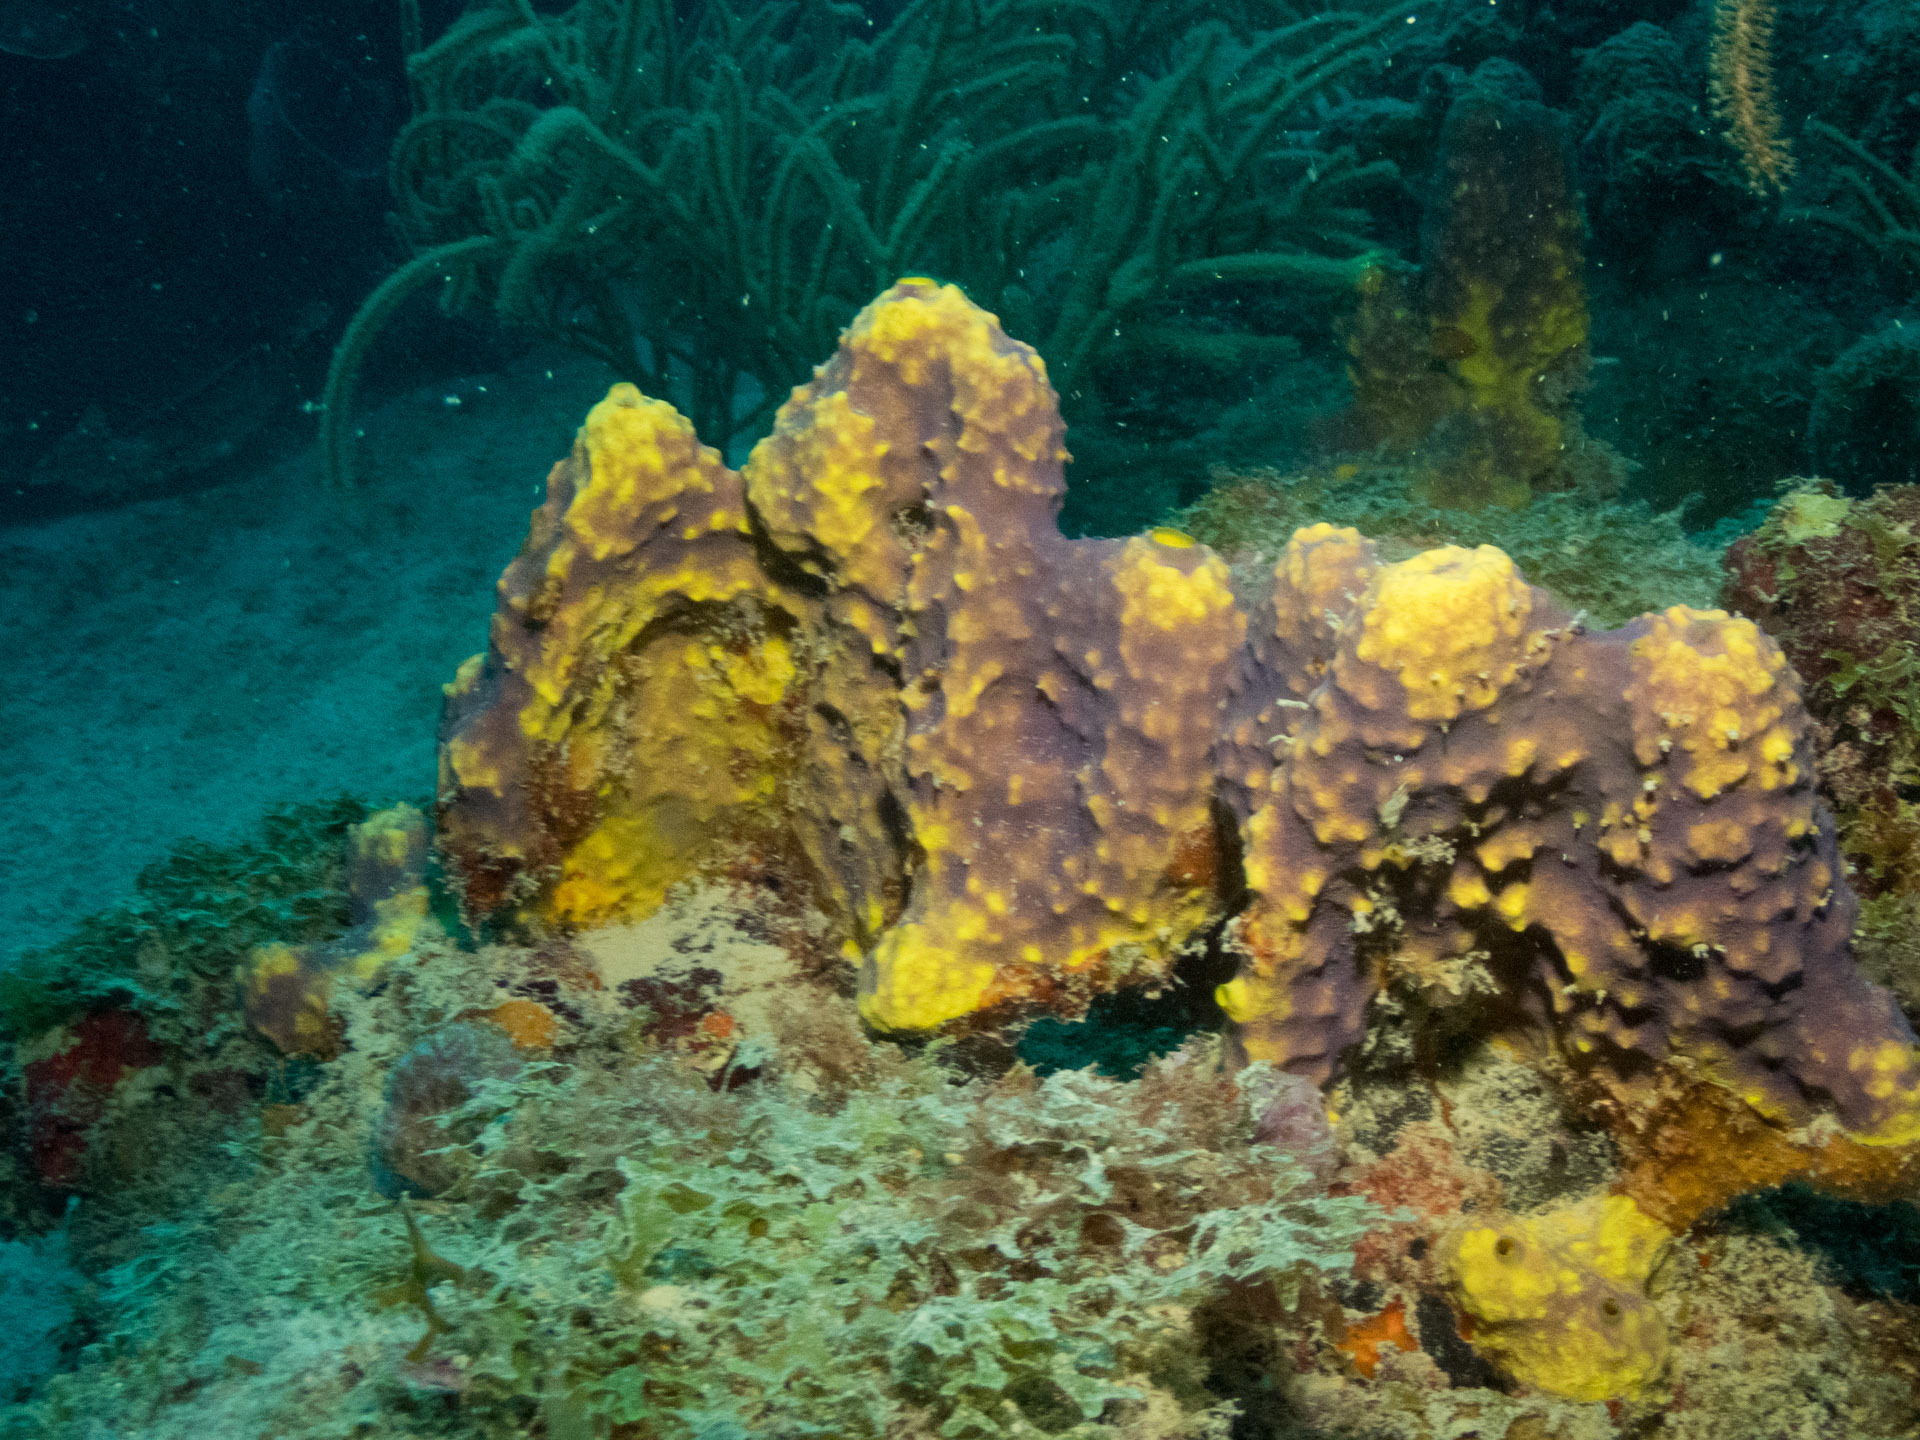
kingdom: Animalia
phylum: Porifera
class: Demospongiae
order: Verongiida
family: Aplysinidae
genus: Aiolochroia
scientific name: Aiolochroia crassa
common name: Branching tube sponge
